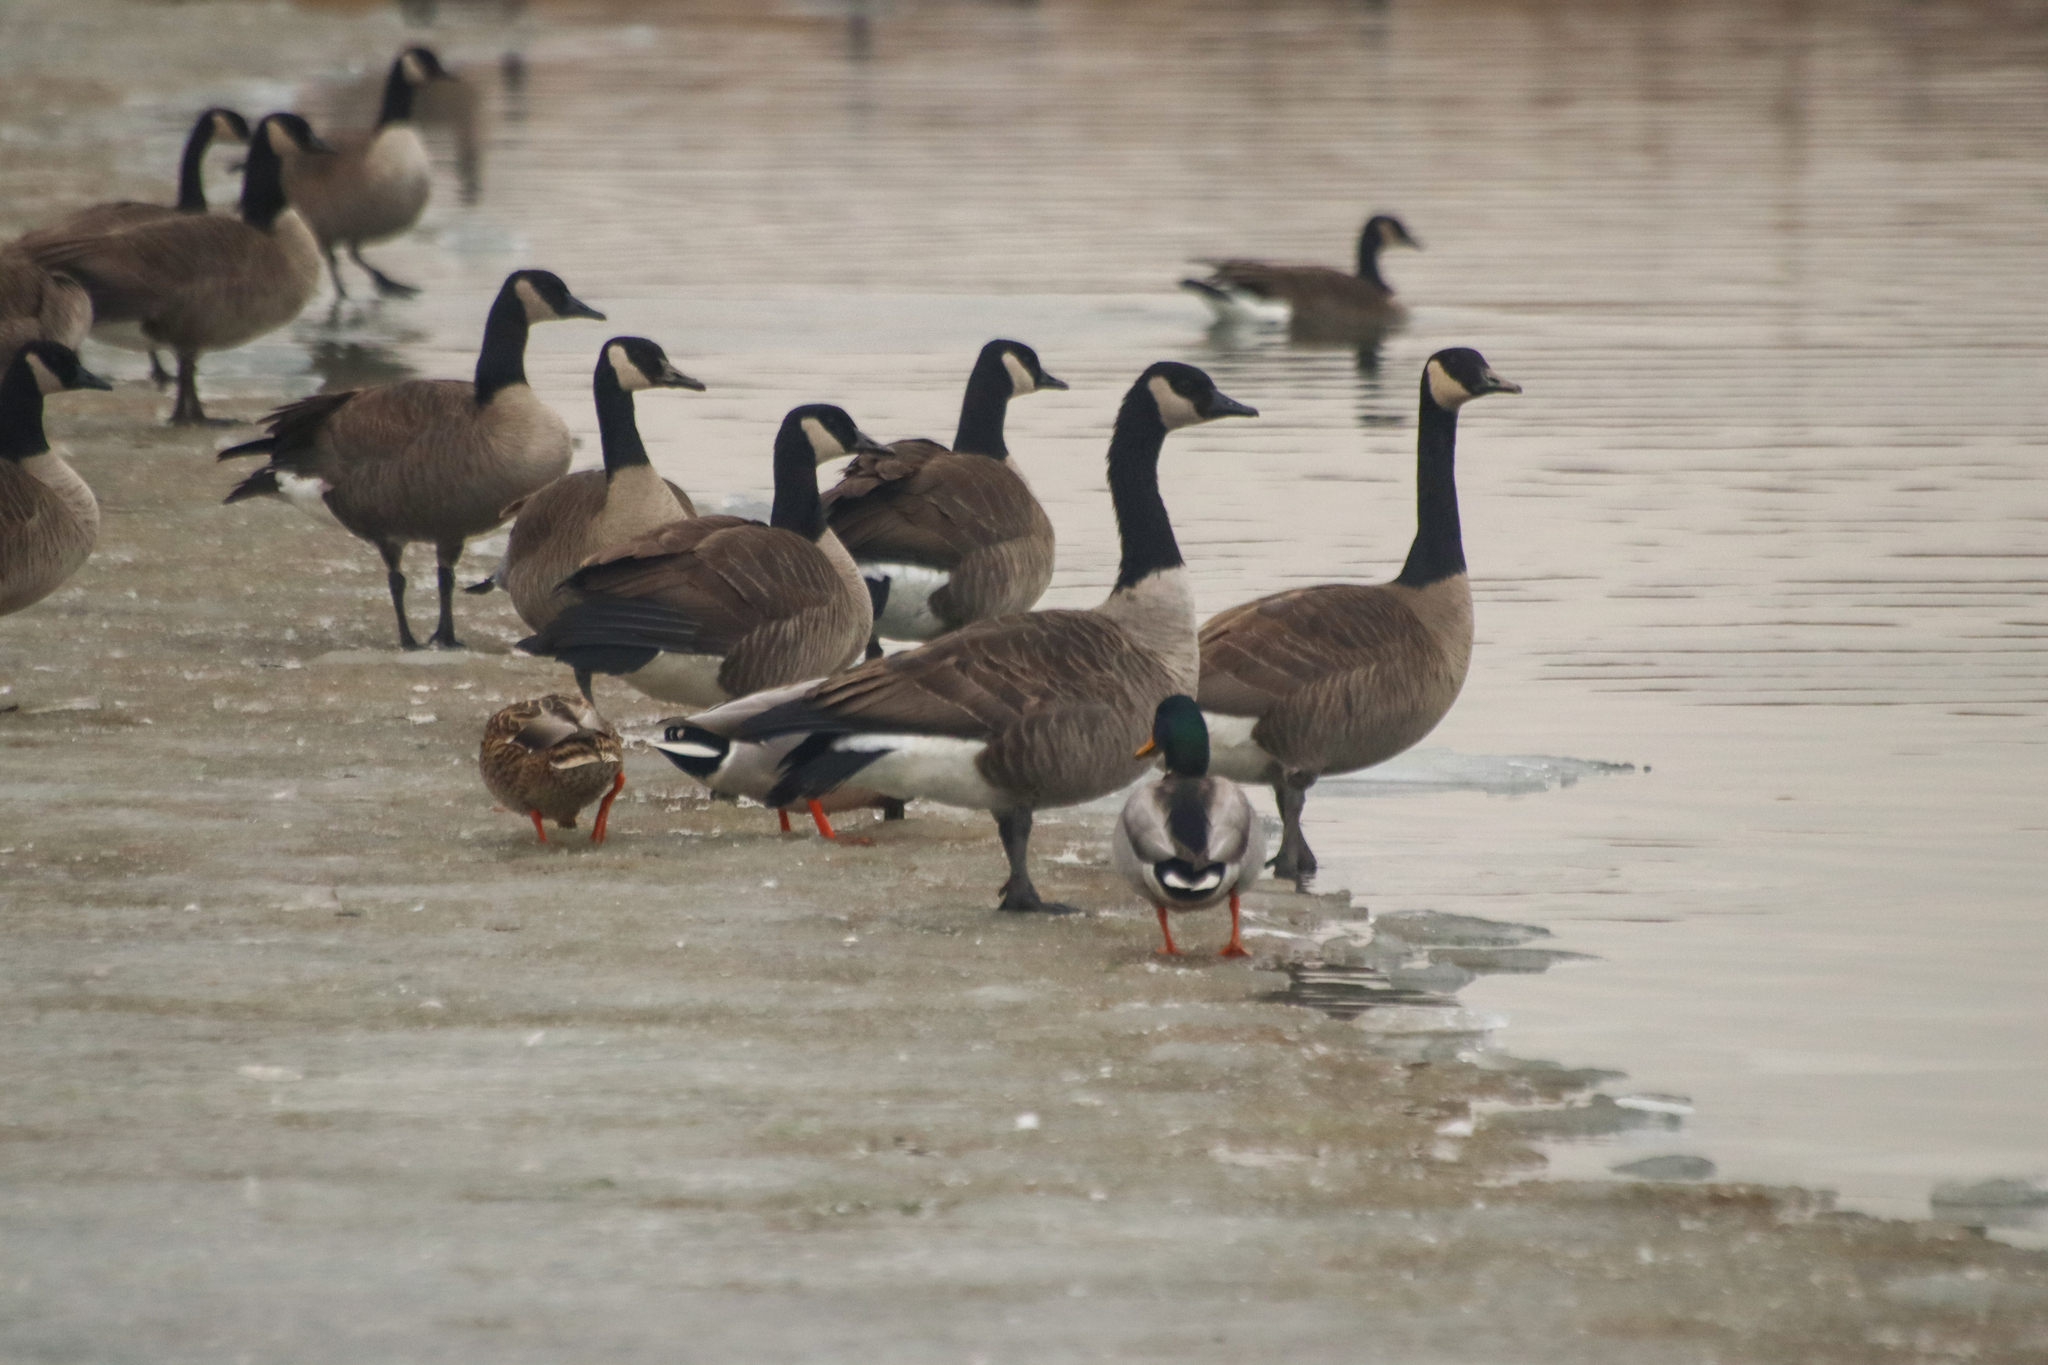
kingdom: Animalia
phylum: Chordata
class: Aves
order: Anseriformes
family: Anatidae
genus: Branta
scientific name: Branta canadensis
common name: Canada goose
